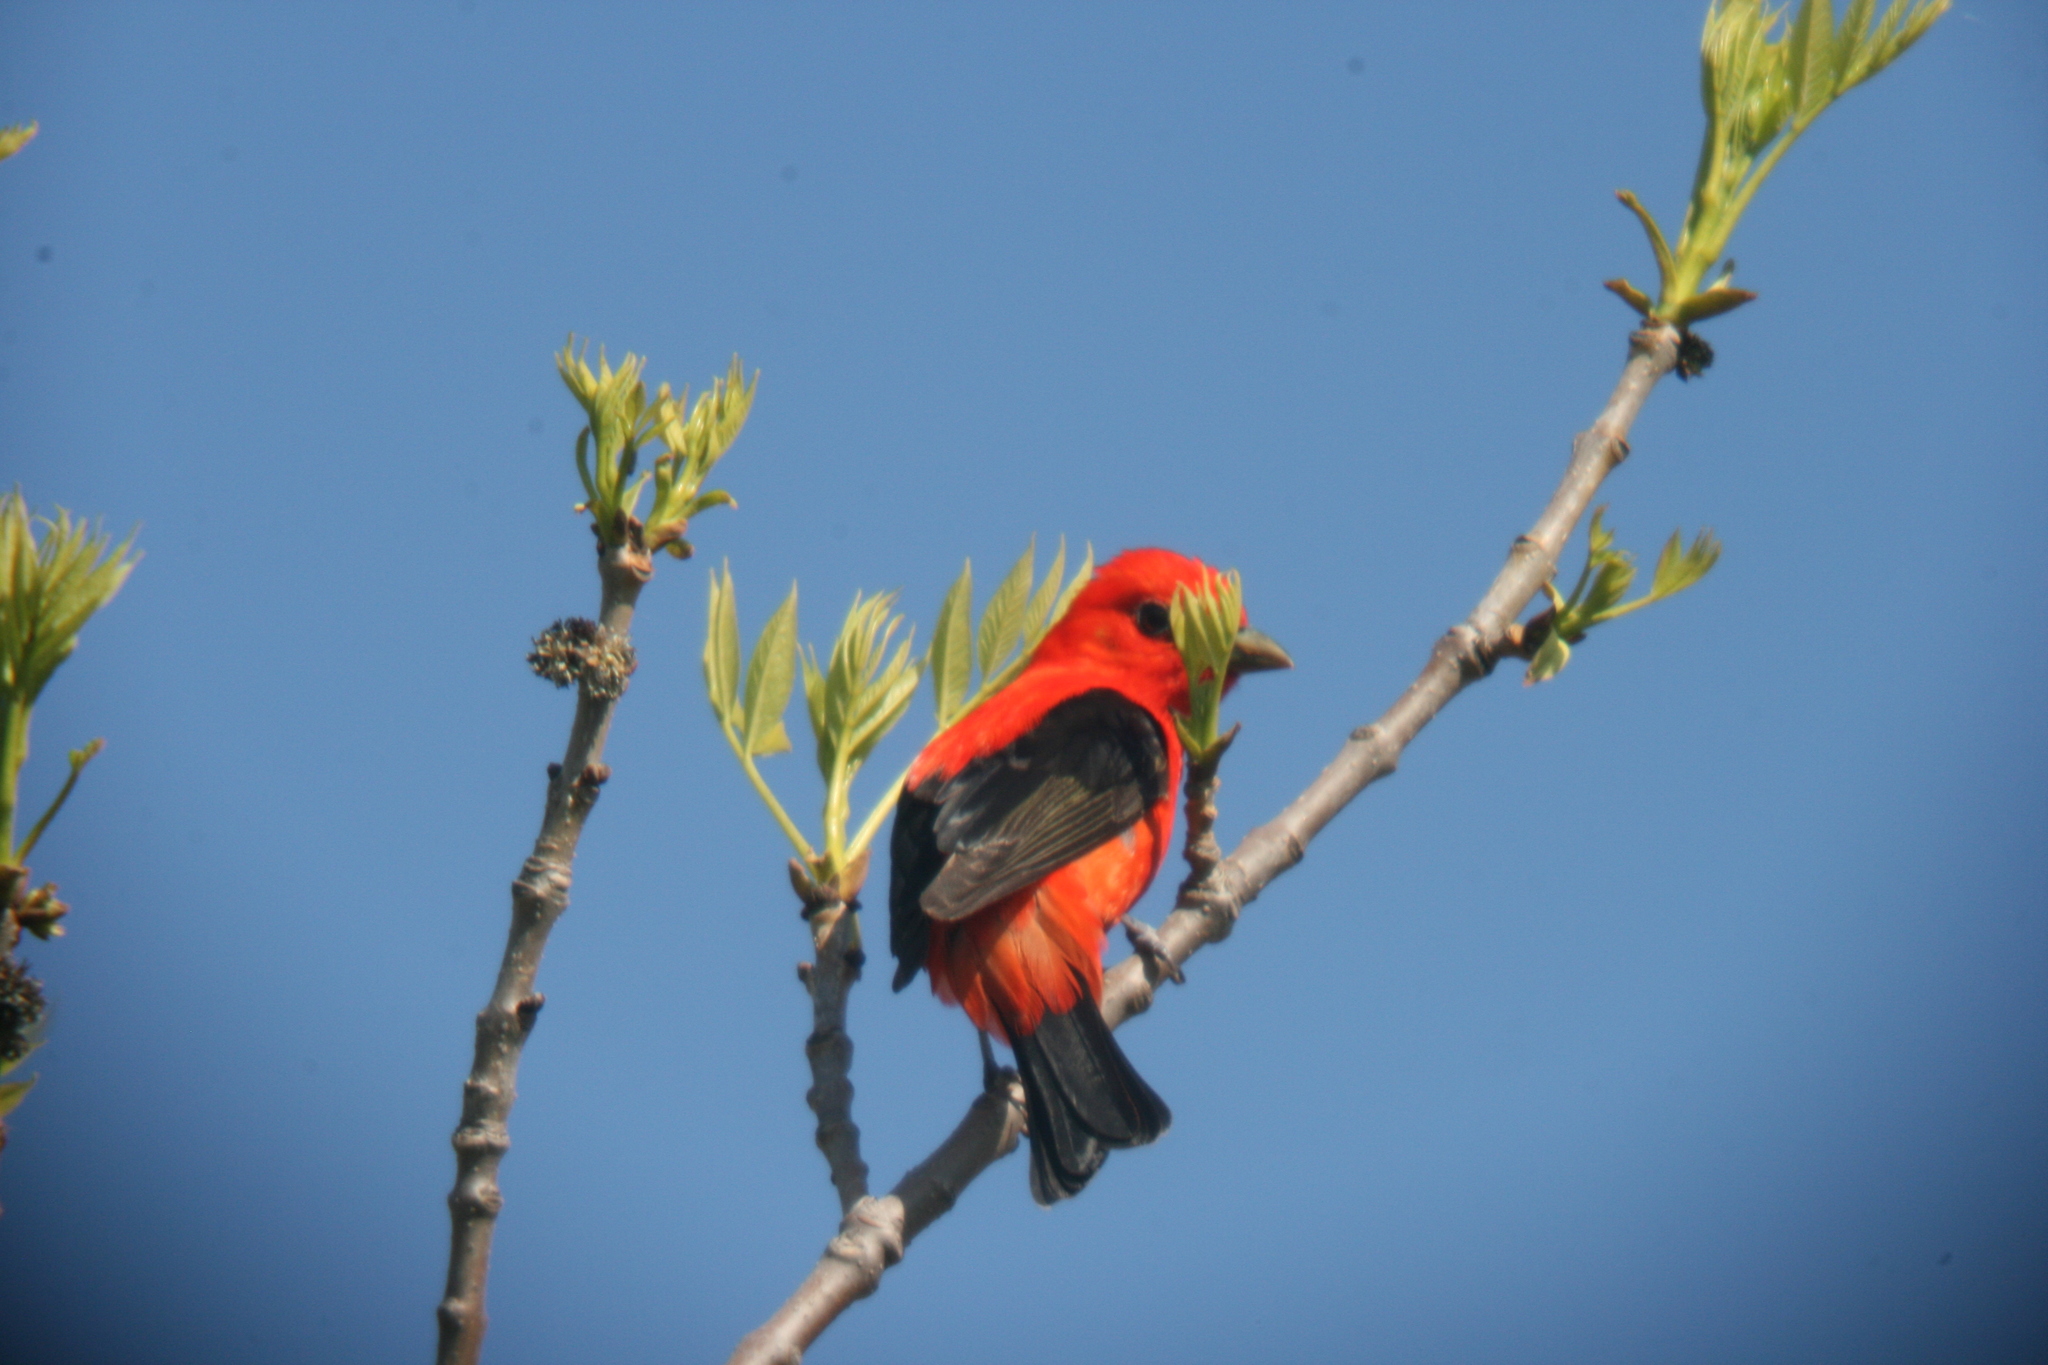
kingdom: Animalia
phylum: Chordata
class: Aves
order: Passeriformes
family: Cardinalidae
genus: Piranga
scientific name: Piranga olivacea
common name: Scarlet tanager
